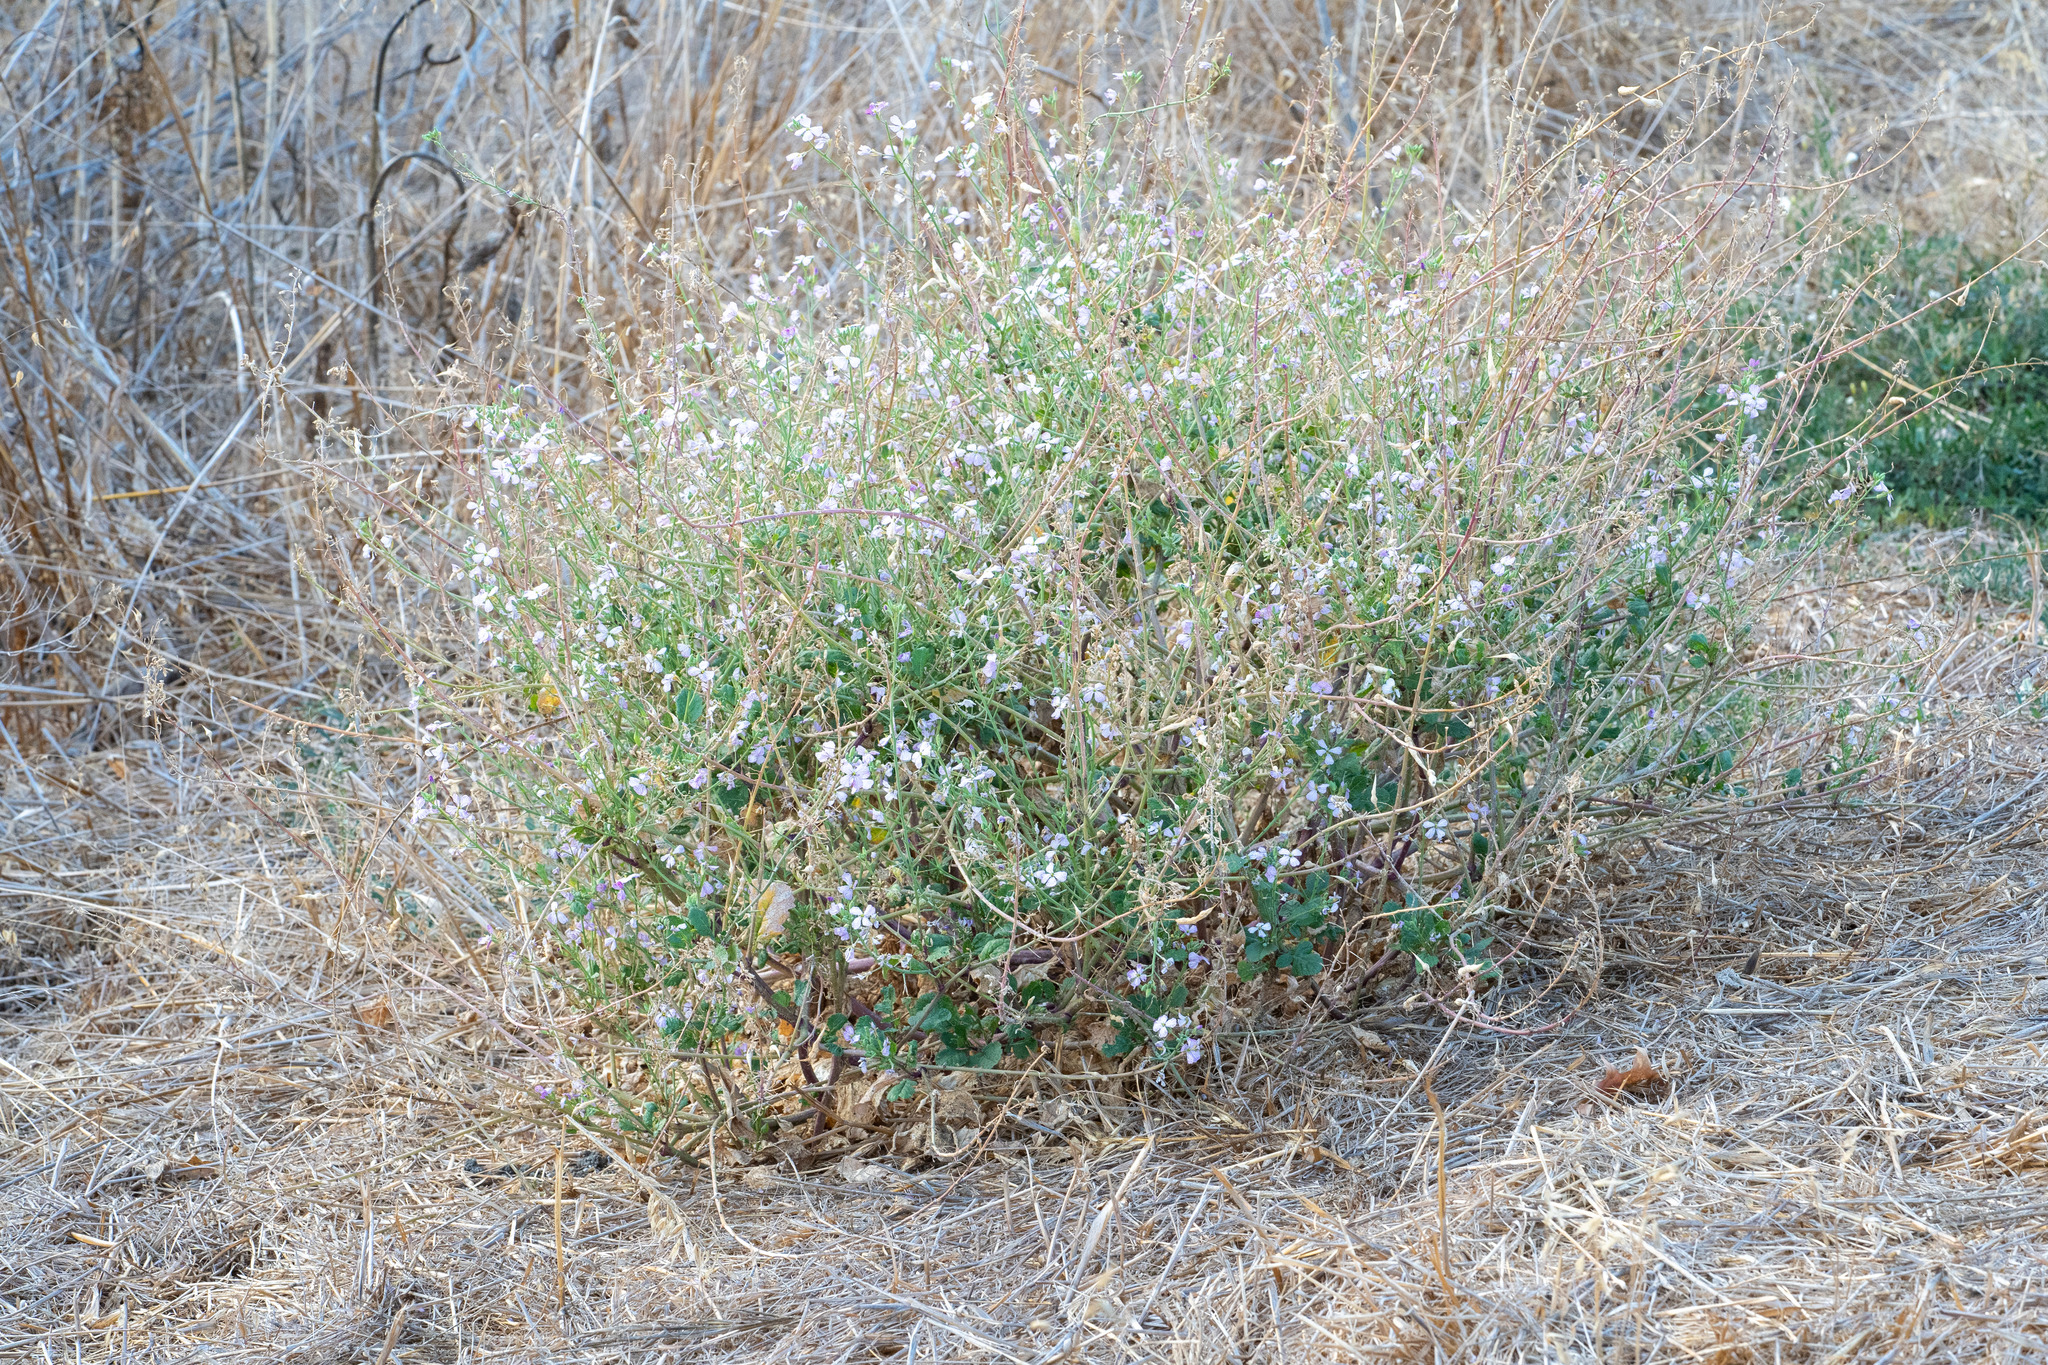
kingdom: Plantae
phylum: Tracheophyta
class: Magnoliopsida
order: Brassicales
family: Brassicaceae
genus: Raphanus
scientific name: Raphanus sativus
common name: Cultivated radish
